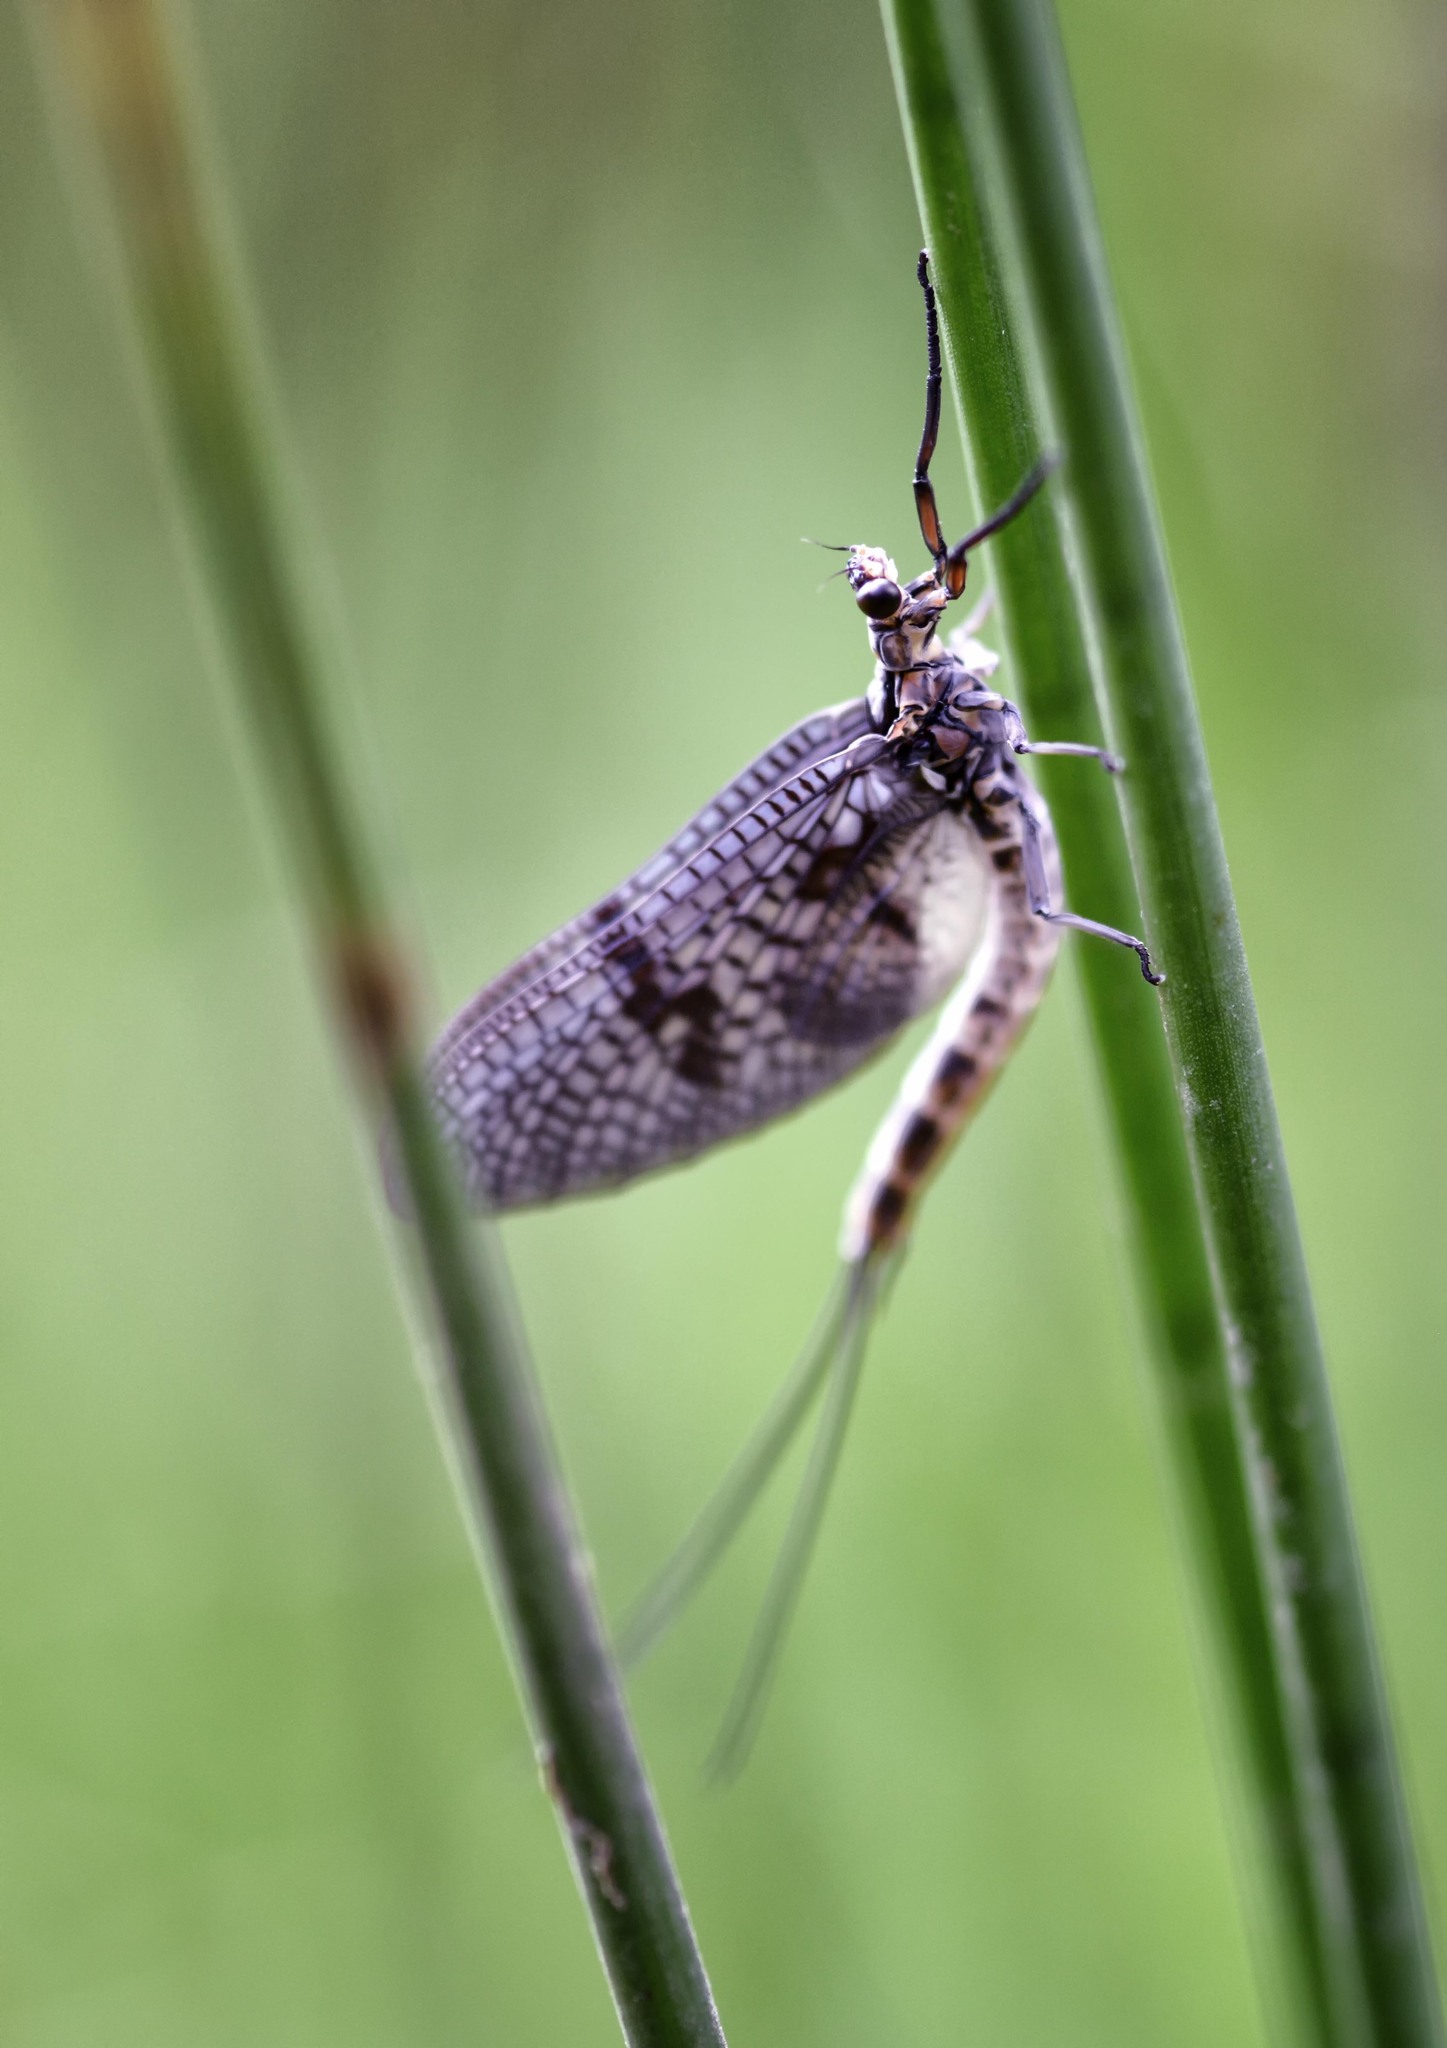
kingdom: Animalia
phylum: Arthropoda
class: Insecta
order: Ephemeroptera
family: Ephemeridae
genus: Ephemera
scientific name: Ephemera danica
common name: Green dun
